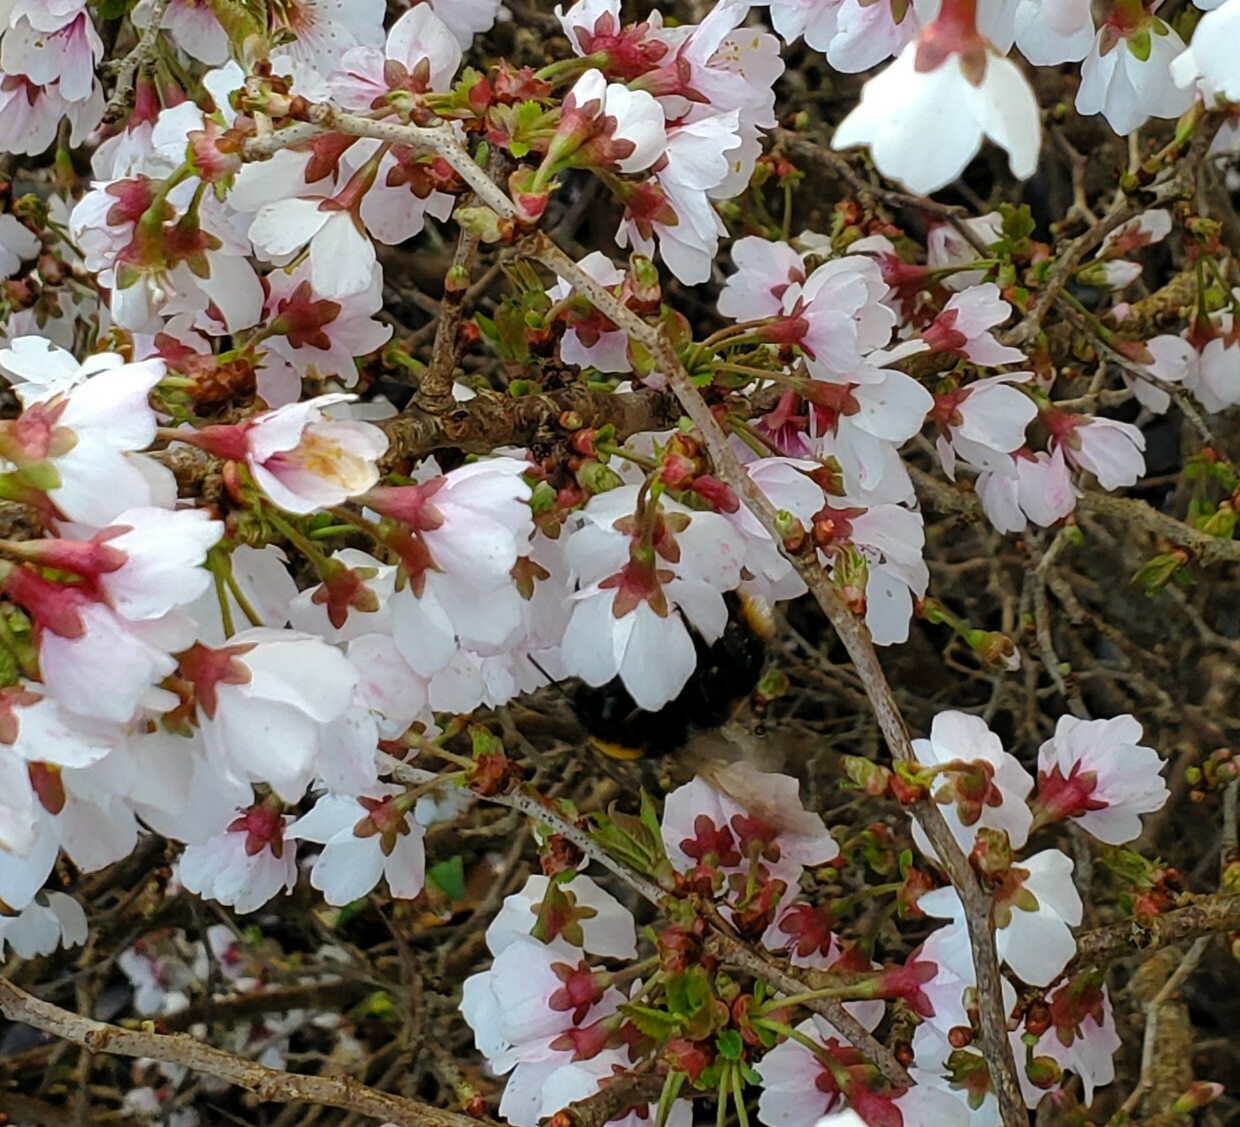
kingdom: Animalia
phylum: Arthropoda
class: Insecta
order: Hymenoptera
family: Apidae
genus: Bombus
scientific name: Bombus terrestris
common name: Buff-tailed bumblebee
